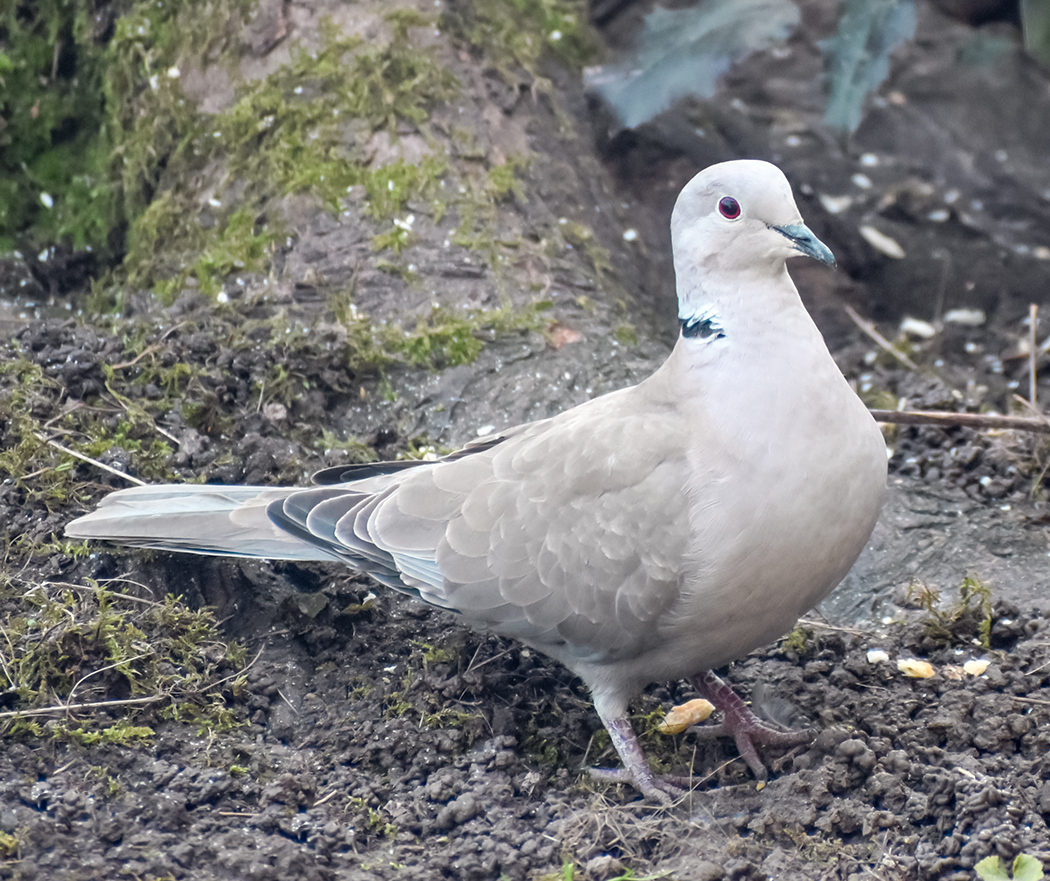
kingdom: Animalia
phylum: Chordata
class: Aves
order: Columbiformes
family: Columbidae
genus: Streptopelia
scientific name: Streptopelia decaocto
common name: Eurasian collared dove
